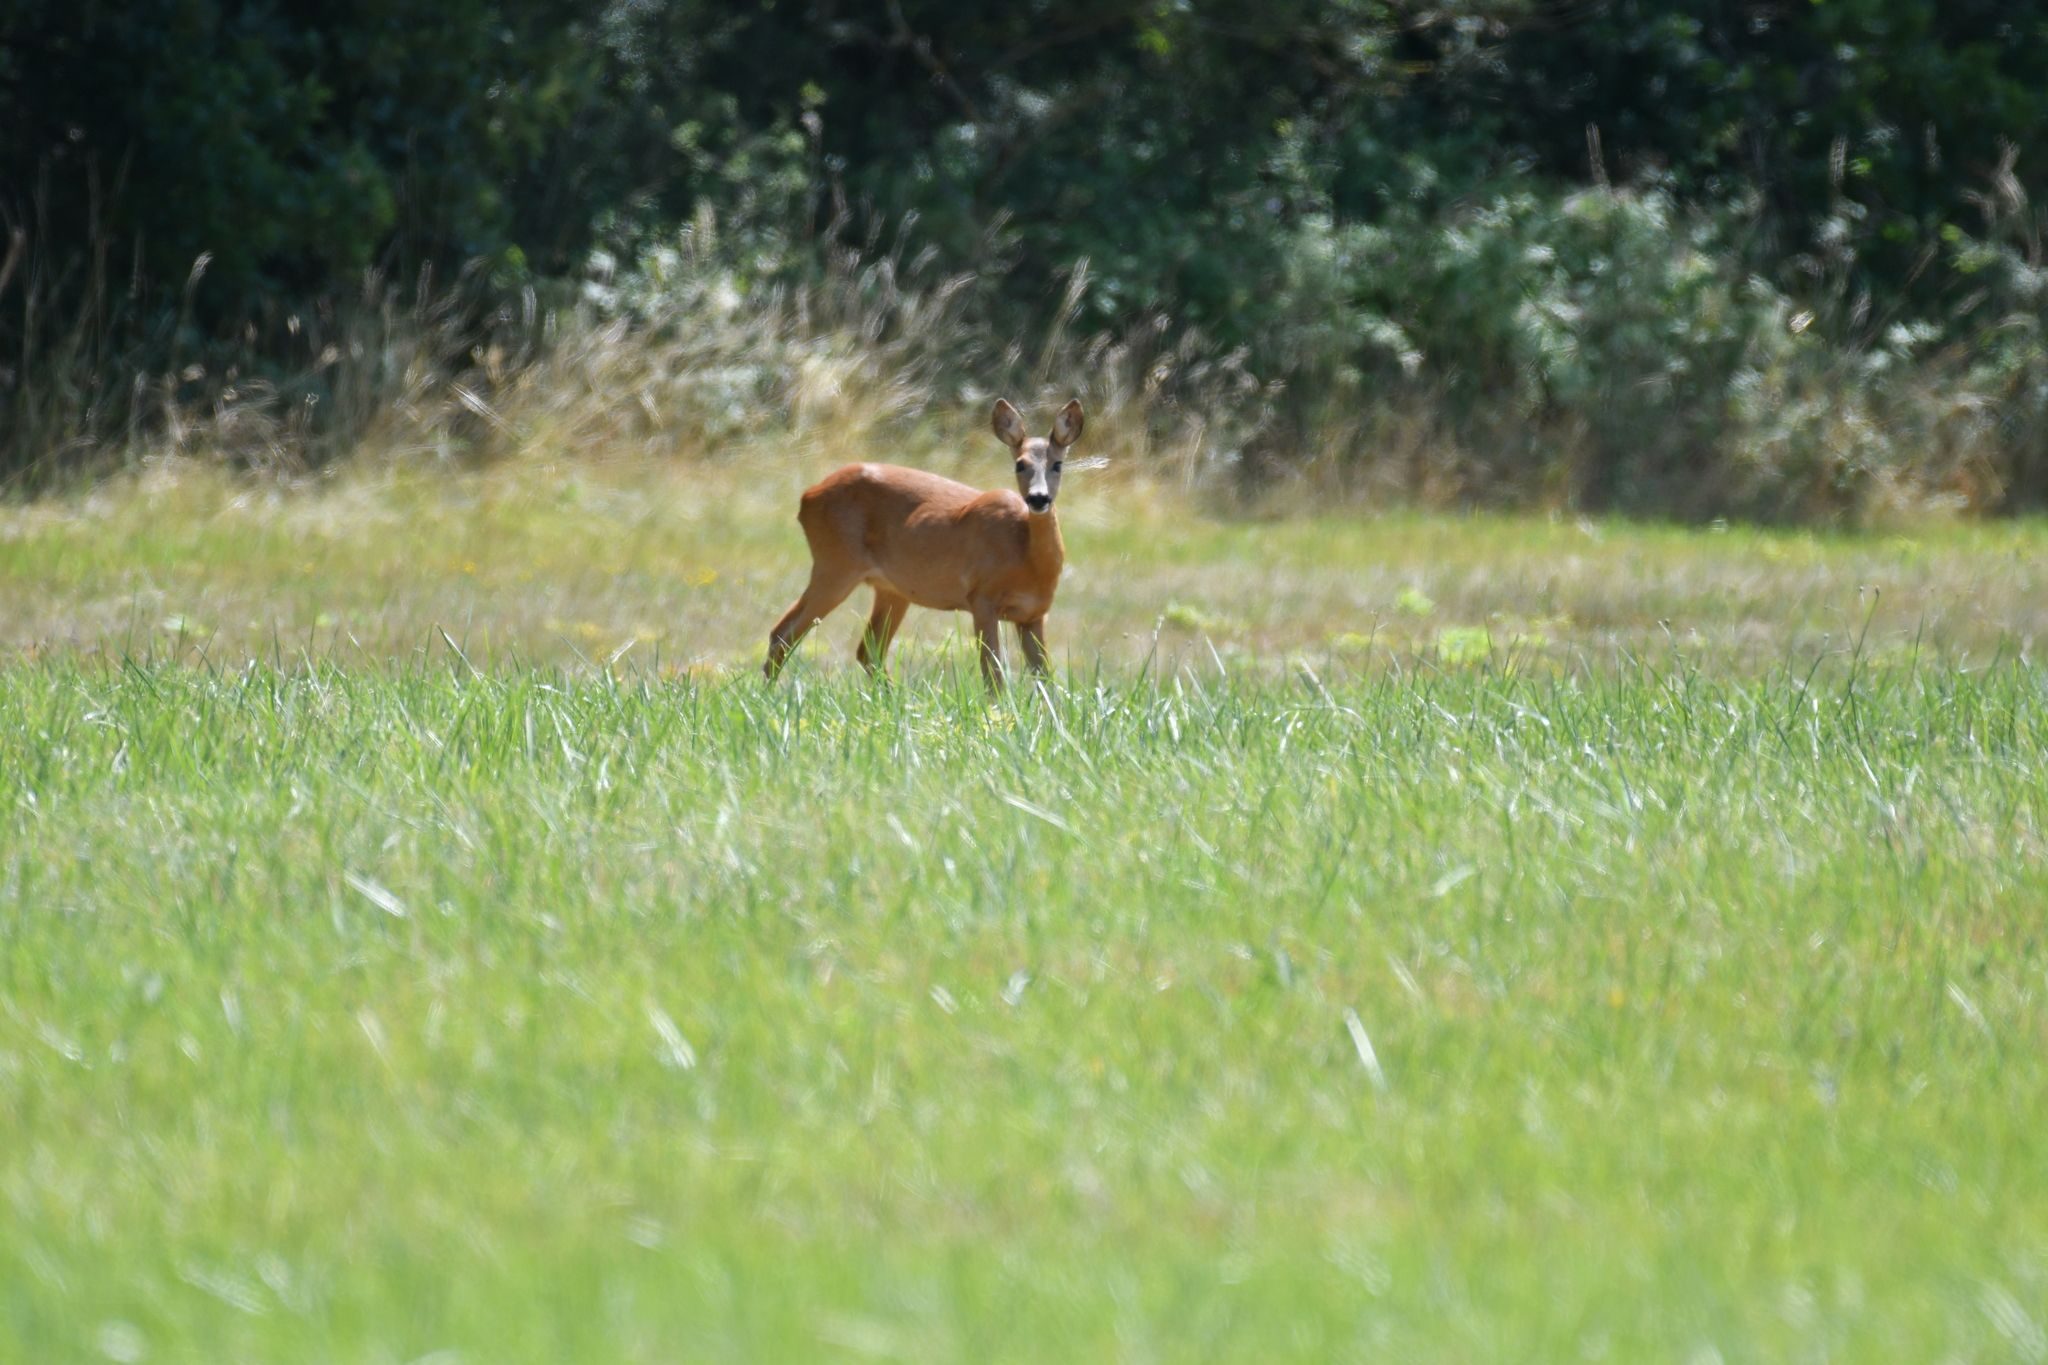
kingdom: Animalia
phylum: Chordata
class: Mammalia
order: Artiodactyla
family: Cervidae
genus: Capreolus
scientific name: Capreolus capreolus
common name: Western roe deer
